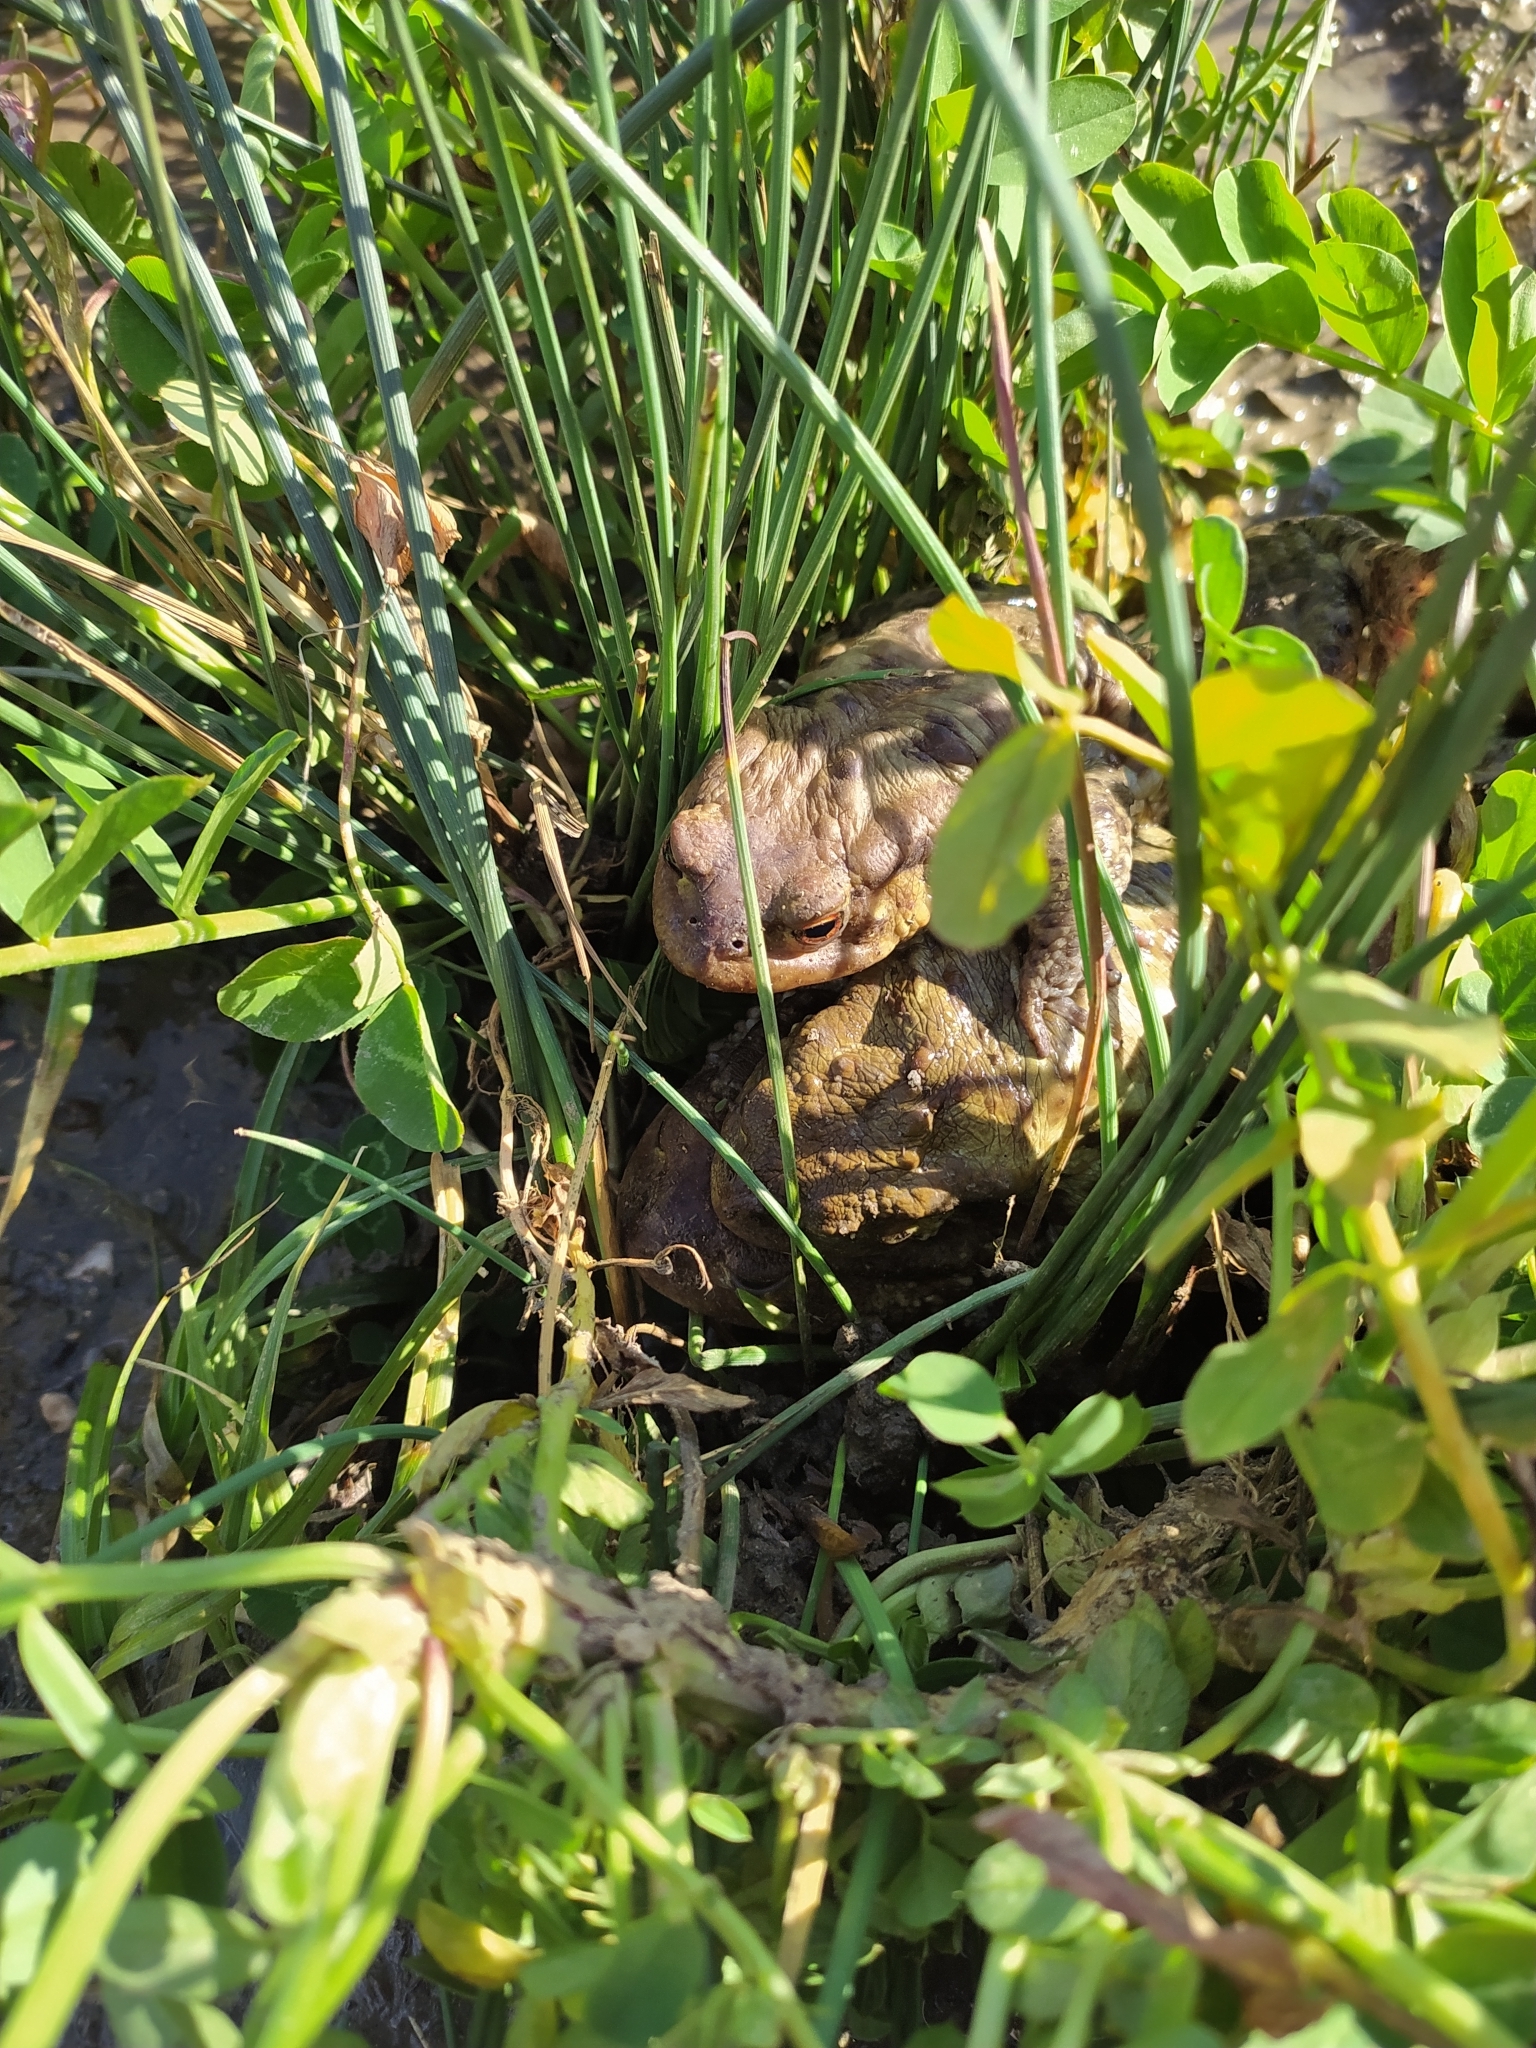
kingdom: Animalia
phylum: Chordata
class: Amphibia
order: Anura
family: Bufonidae
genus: Bufo
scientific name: Bufo bufo
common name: Common toad
